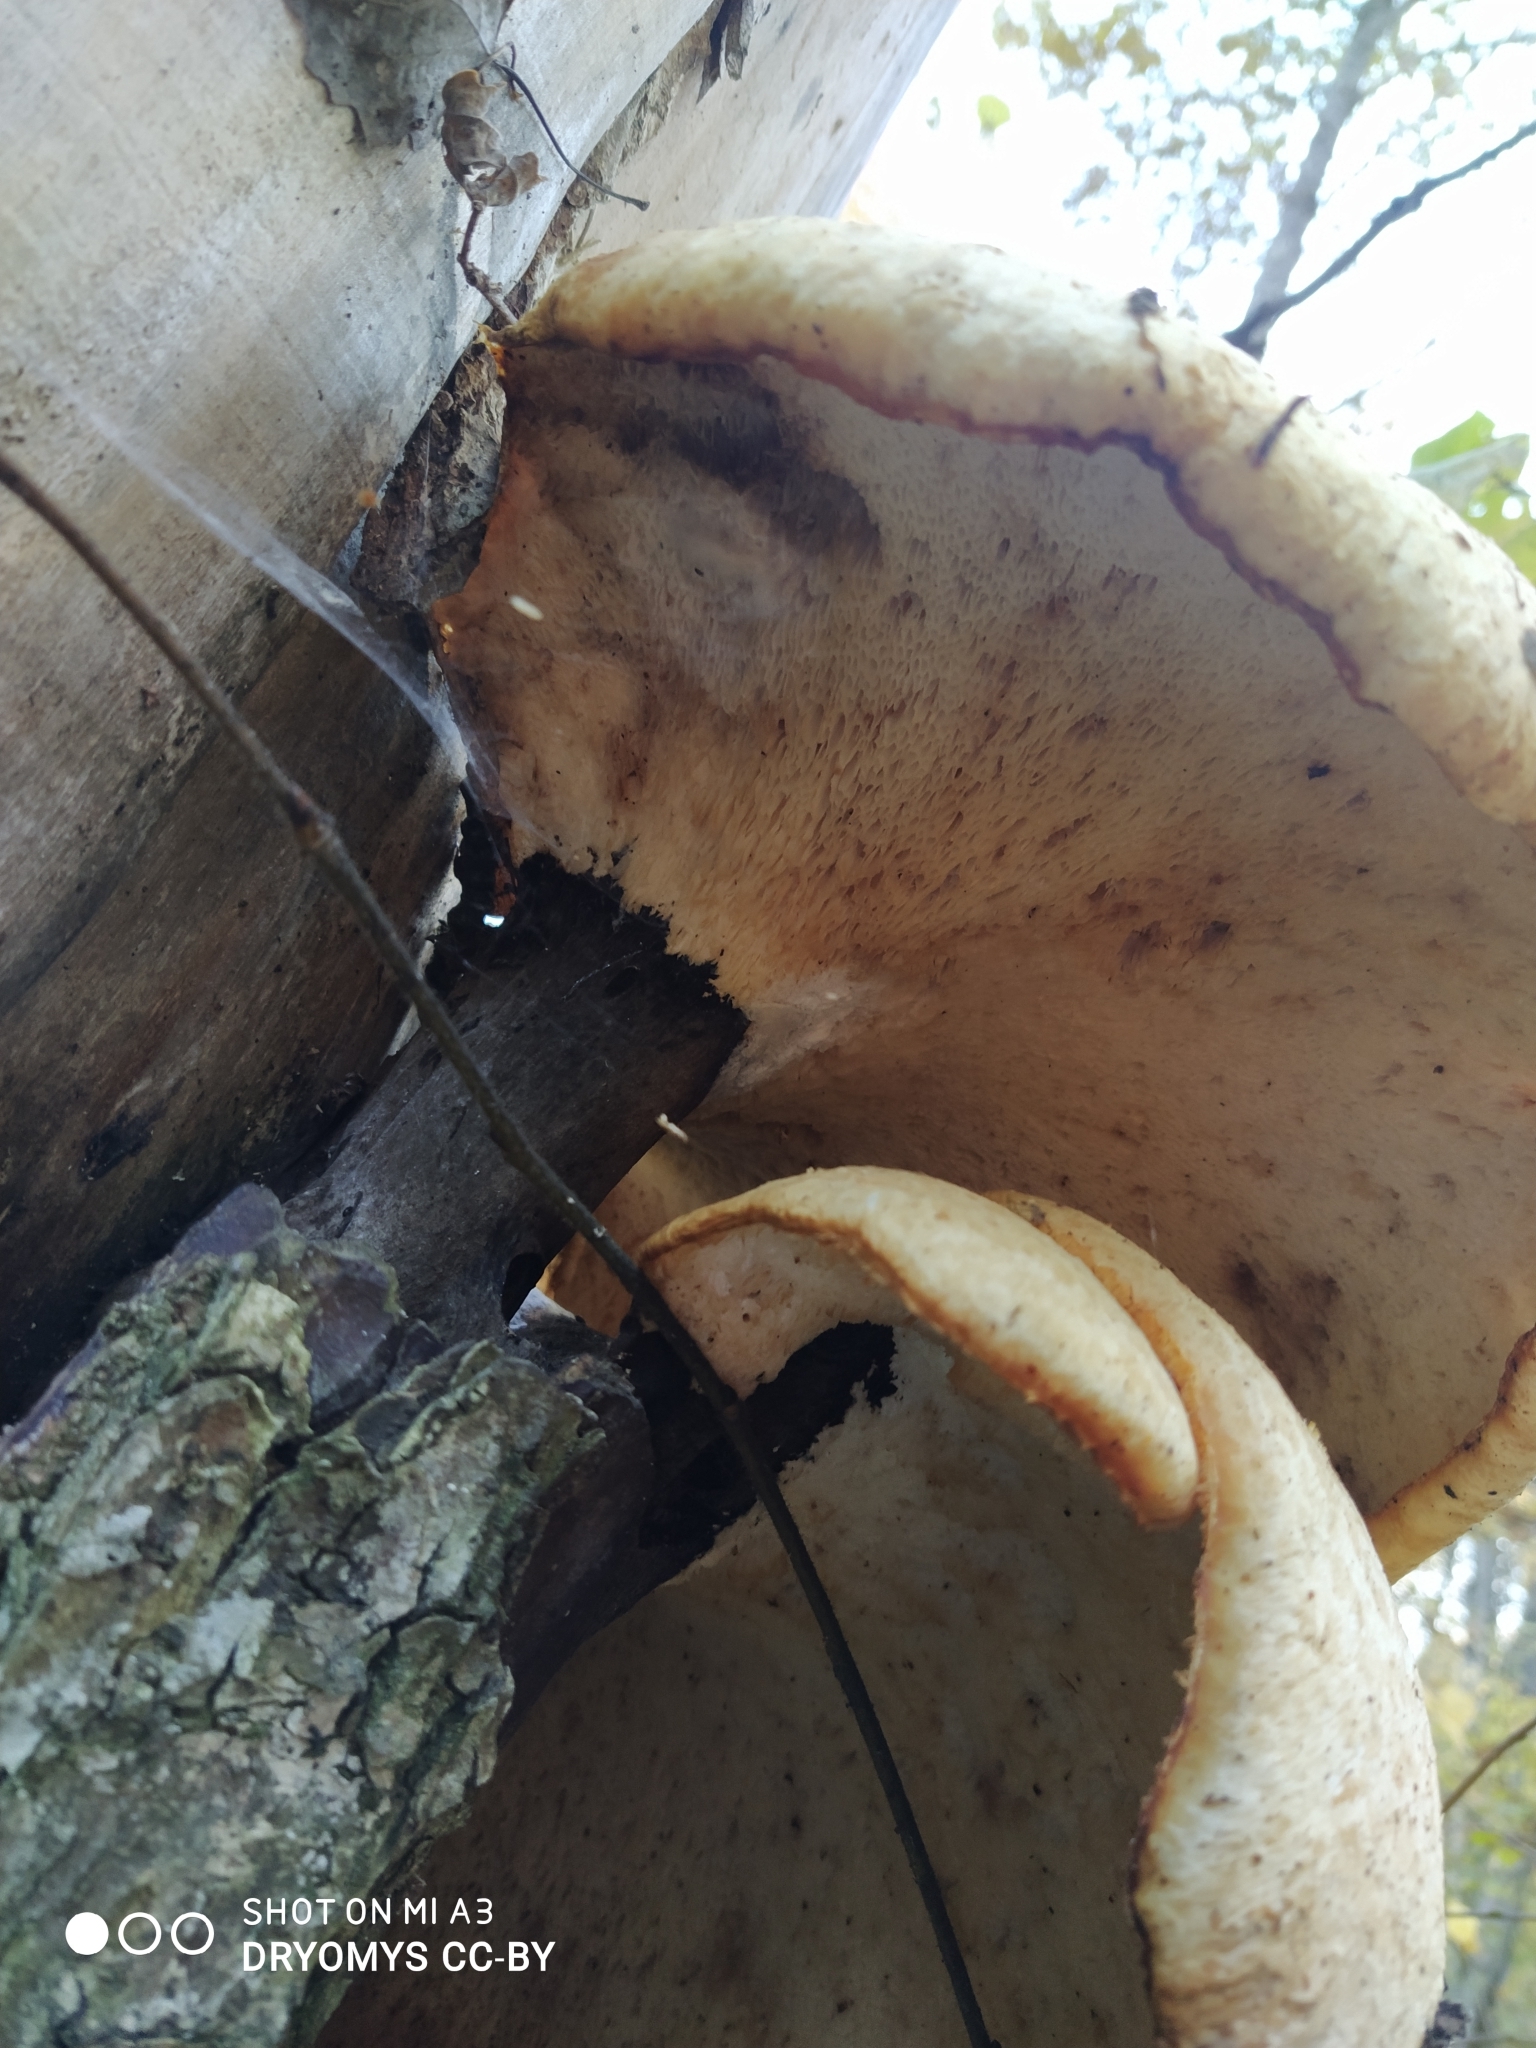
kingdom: Fungi
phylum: Basidiomycota
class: Agaricomycetes
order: Polyporales
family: Polyporaceae
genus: Cerioporus
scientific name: Cerioporus squamosus
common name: Dryad's saddle
